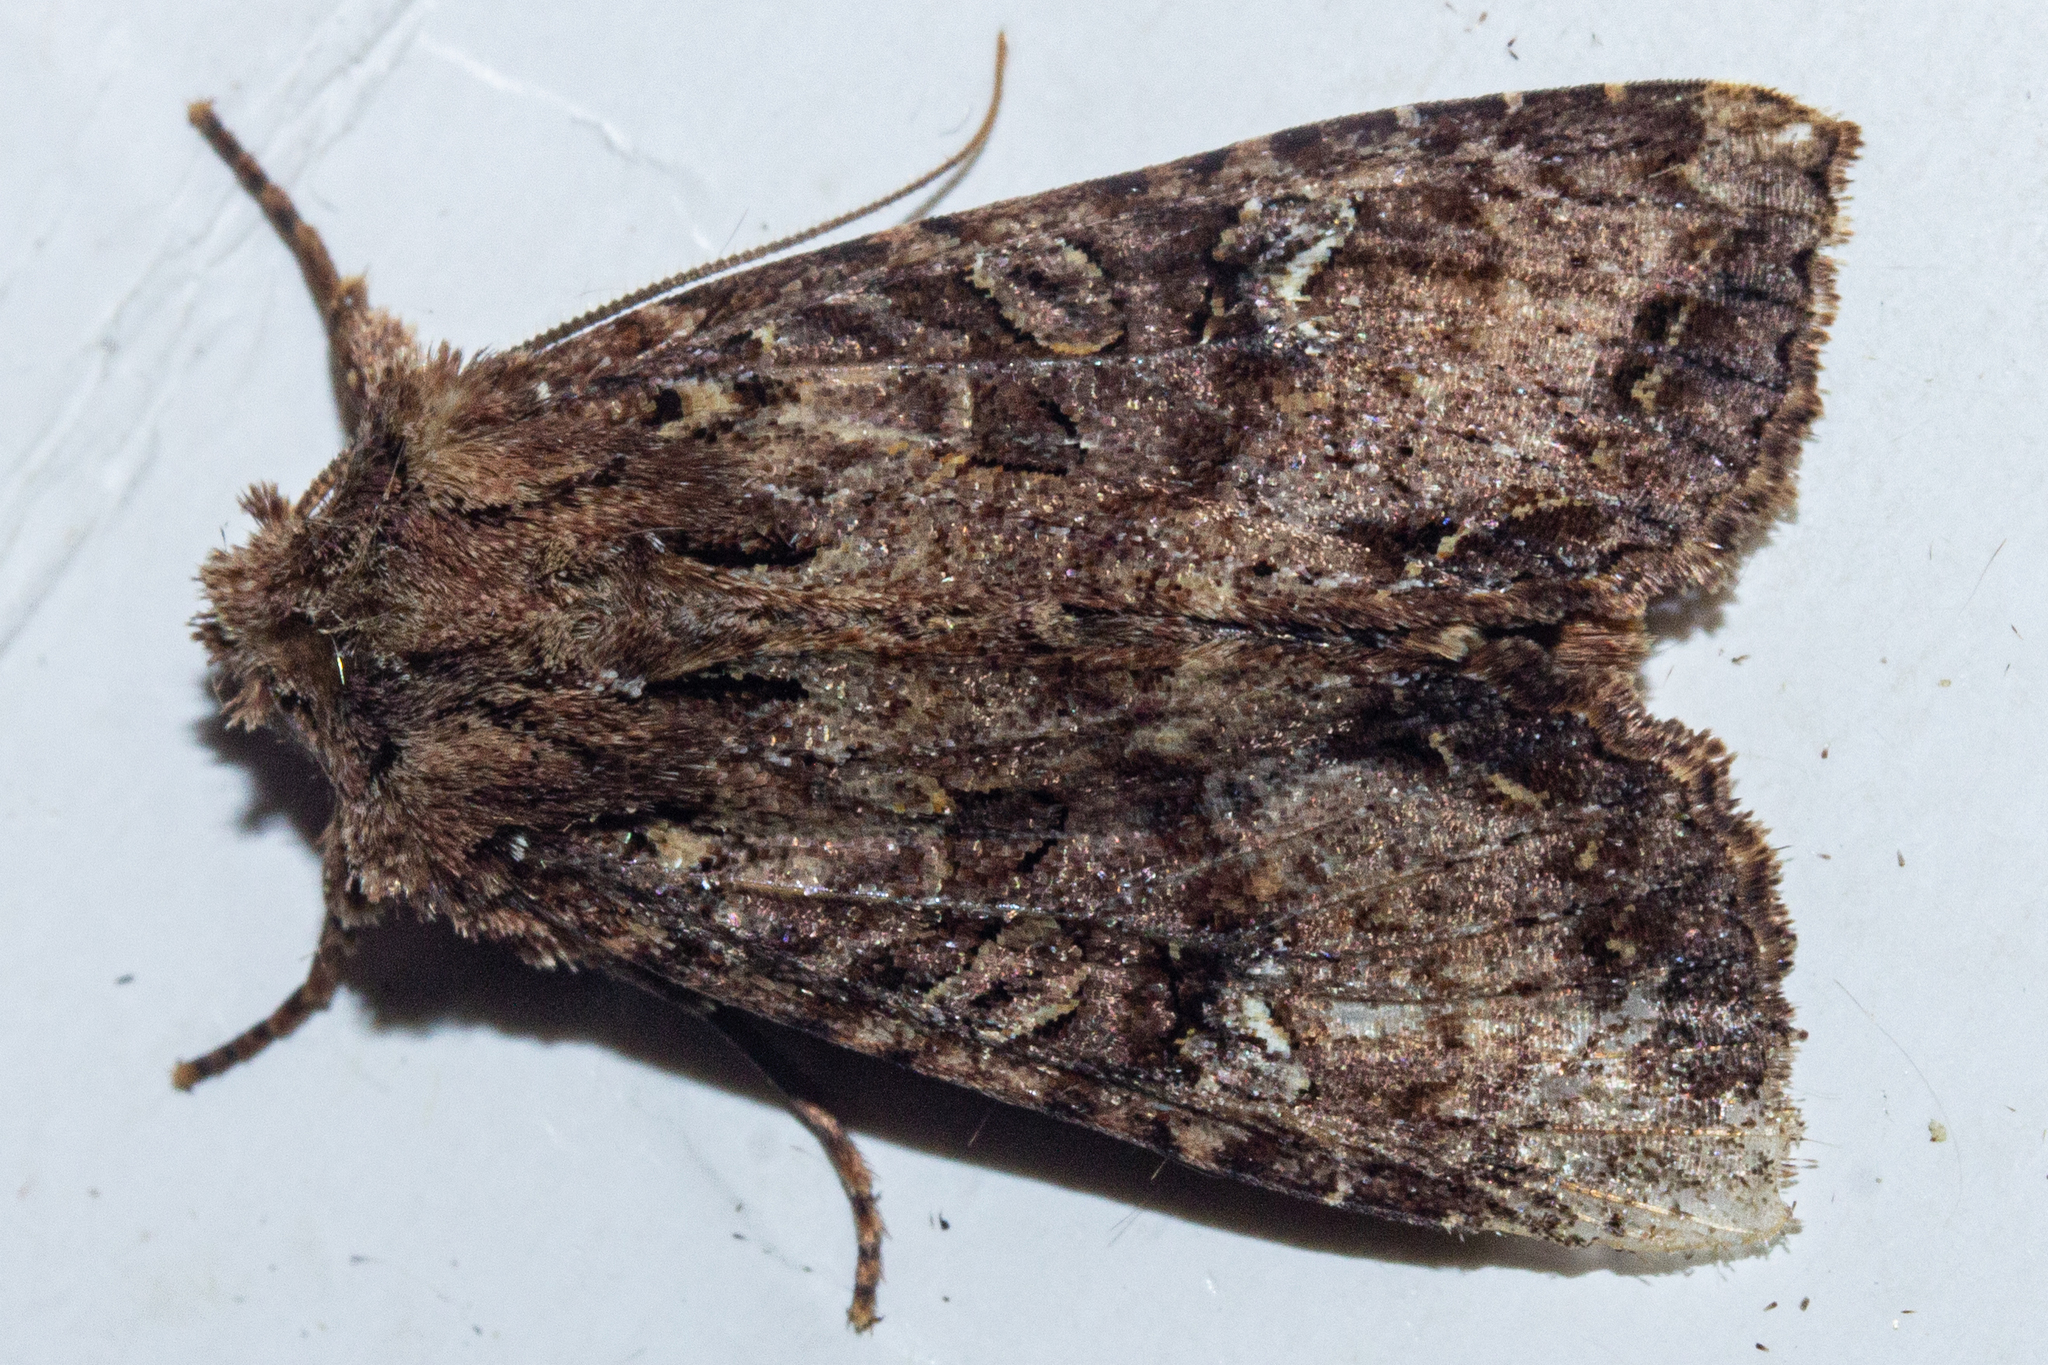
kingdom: Animalia
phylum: Arthropoda
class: Insecta
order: Lepidoptera
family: Noctuidae
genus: Meterana
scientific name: Meterana
